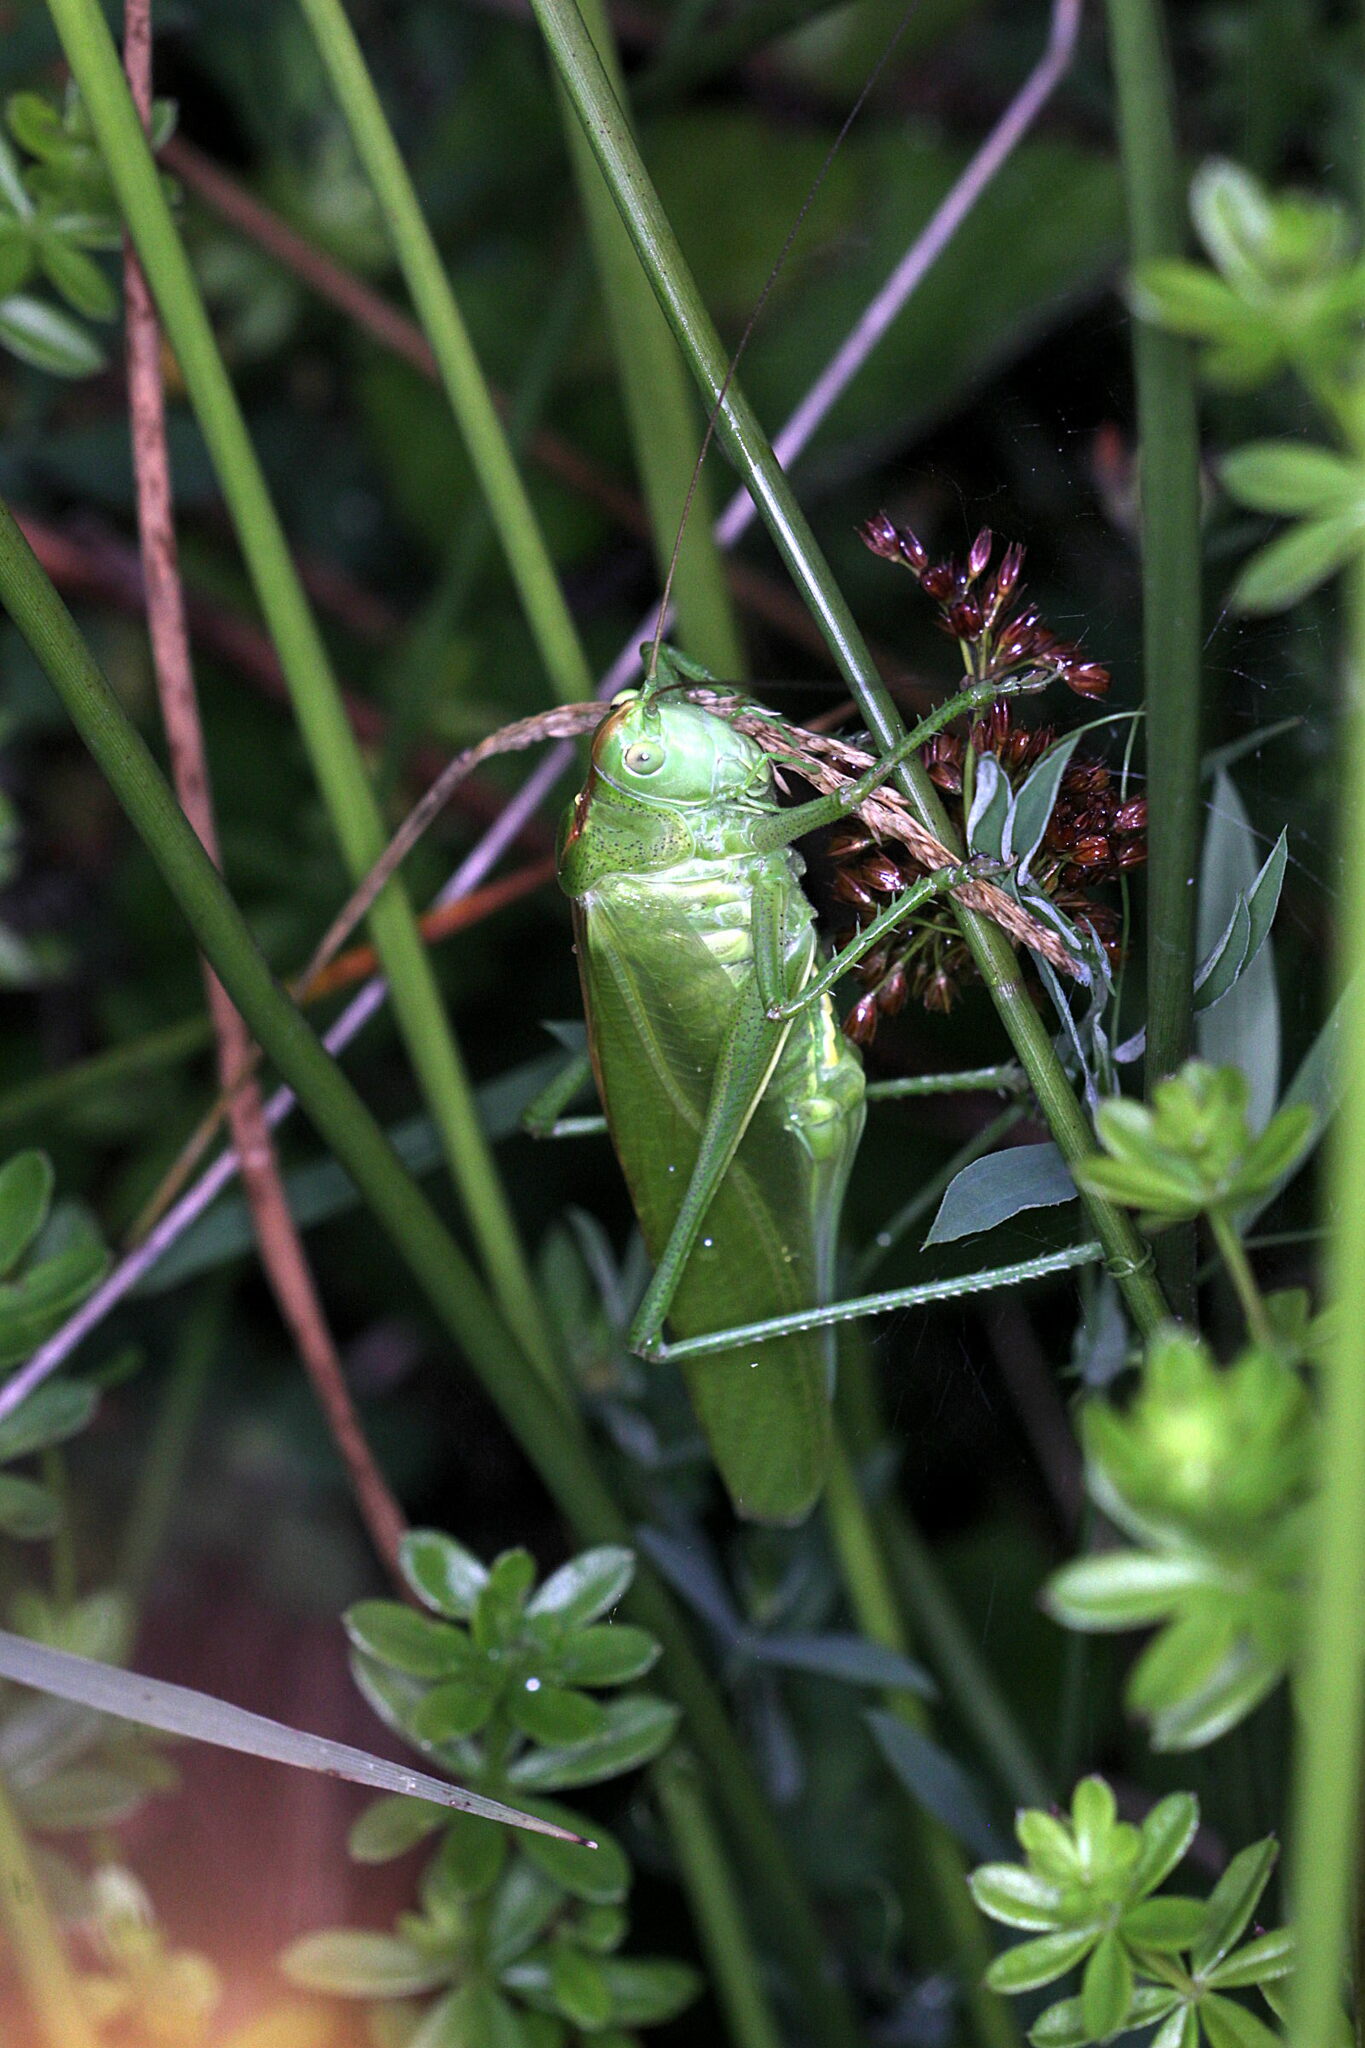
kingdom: Animalia
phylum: Arthropoda
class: Insecta
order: Orthoptera
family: Tettigoniidae
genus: Tettigonia
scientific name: Tettigonia viridissima
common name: Great green bush-cricket
